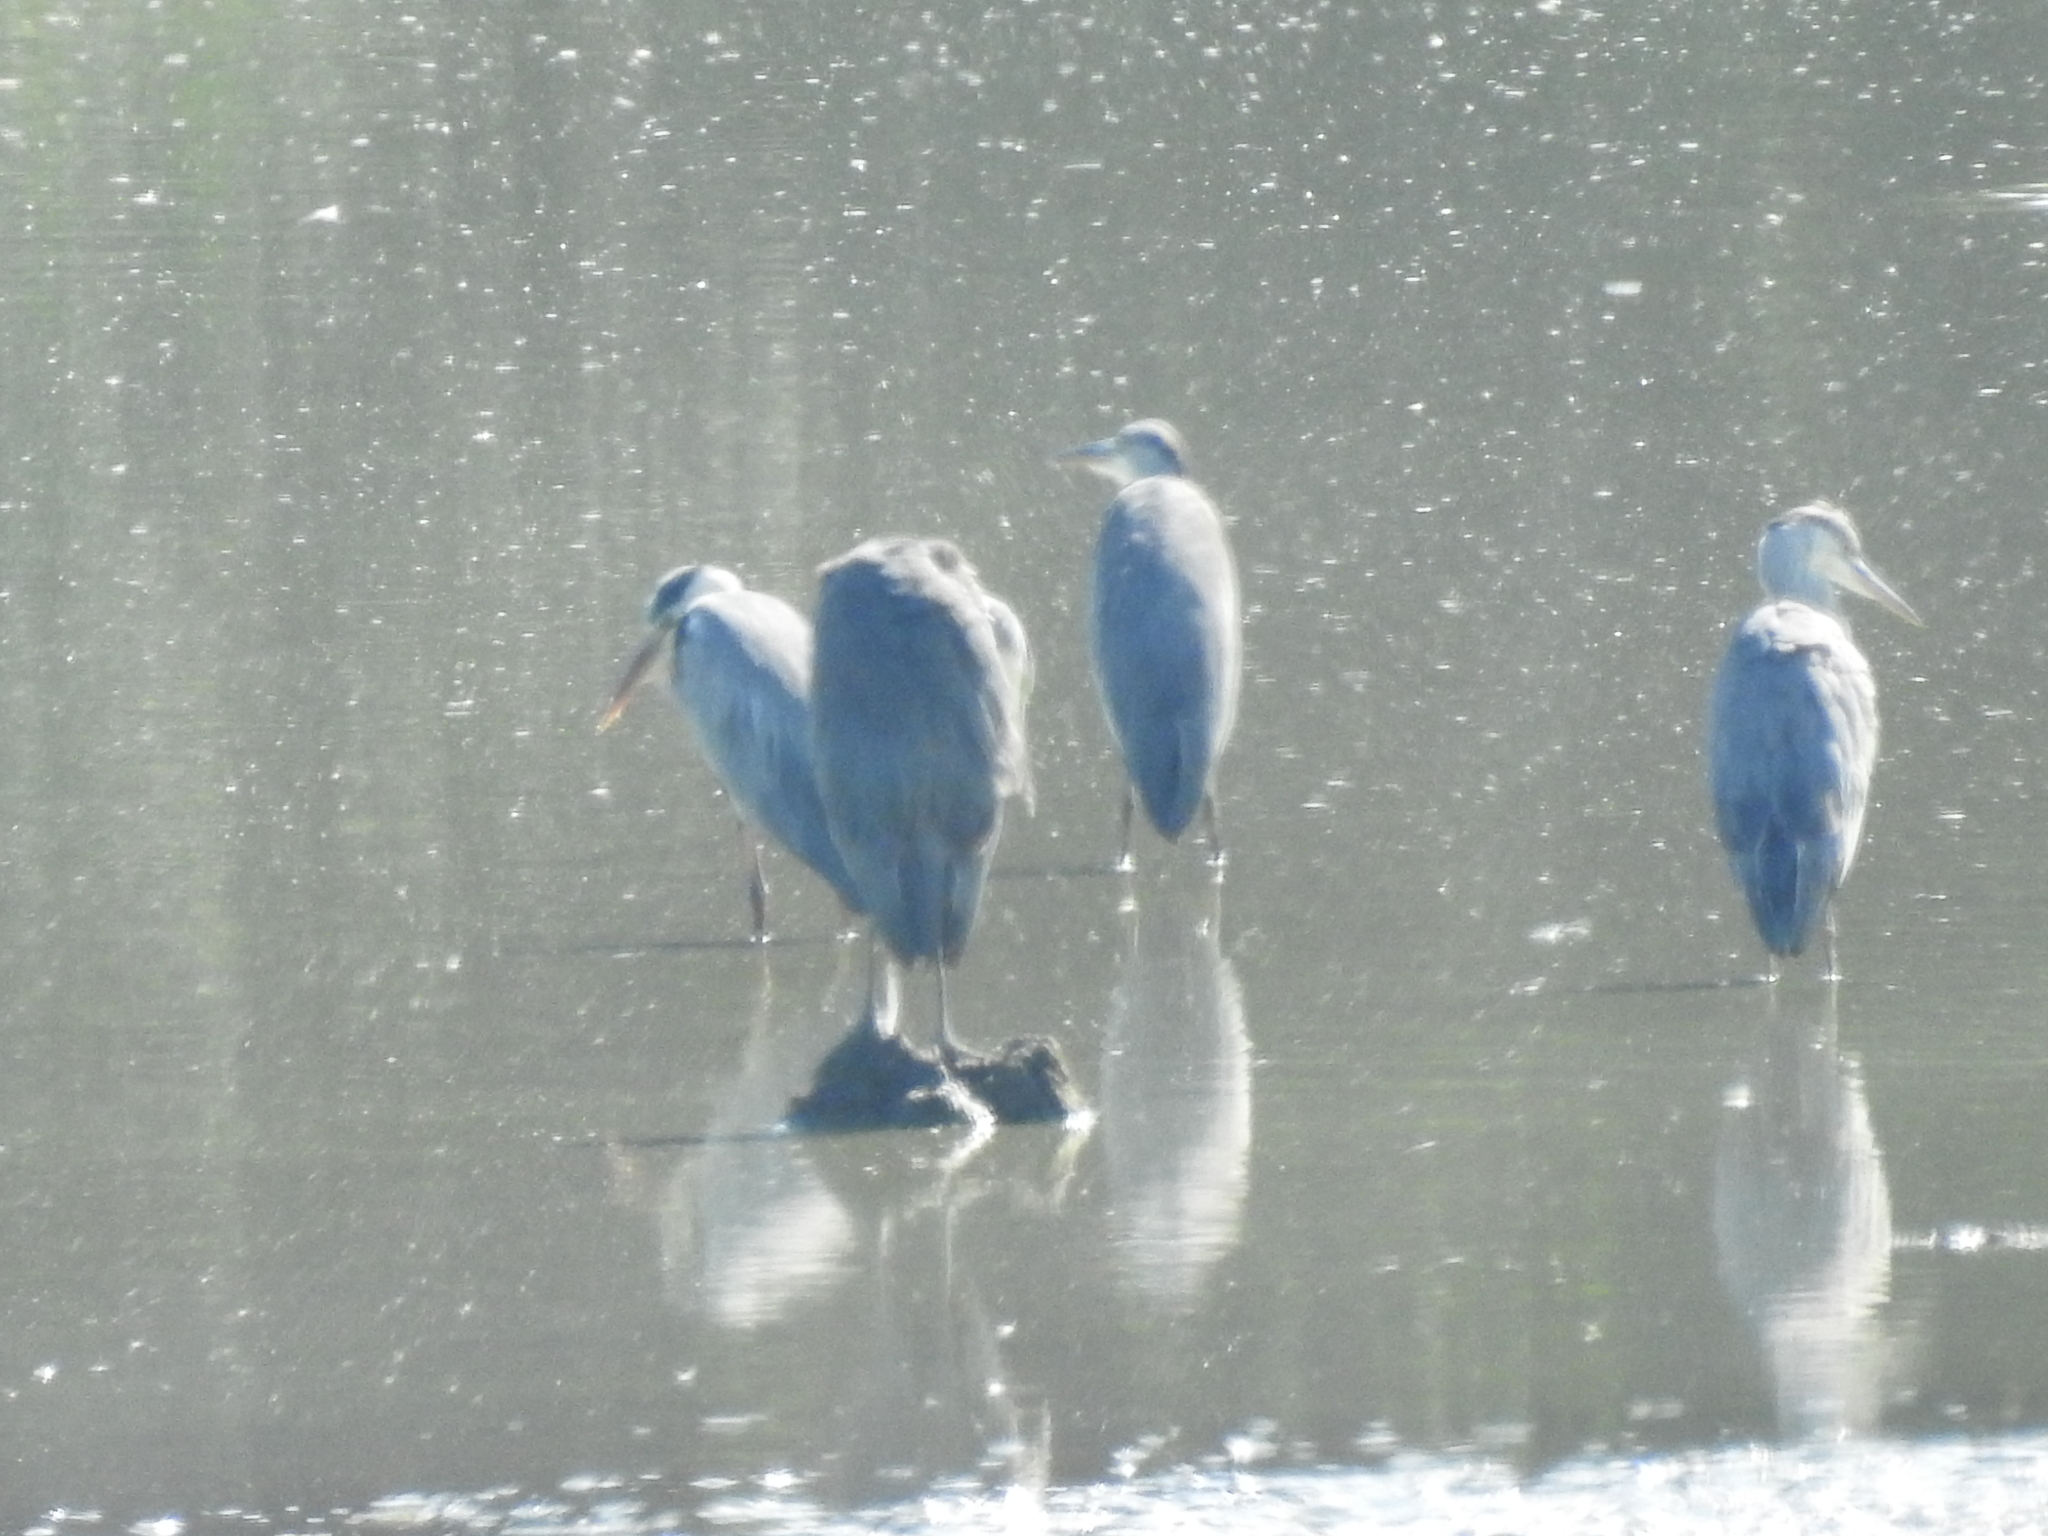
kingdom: Animalia
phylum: Chordata
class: Aves
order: Pelecaniformes
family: Ardeidae
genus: Ardea
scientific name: Ardea cinerea
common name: Grey heron
